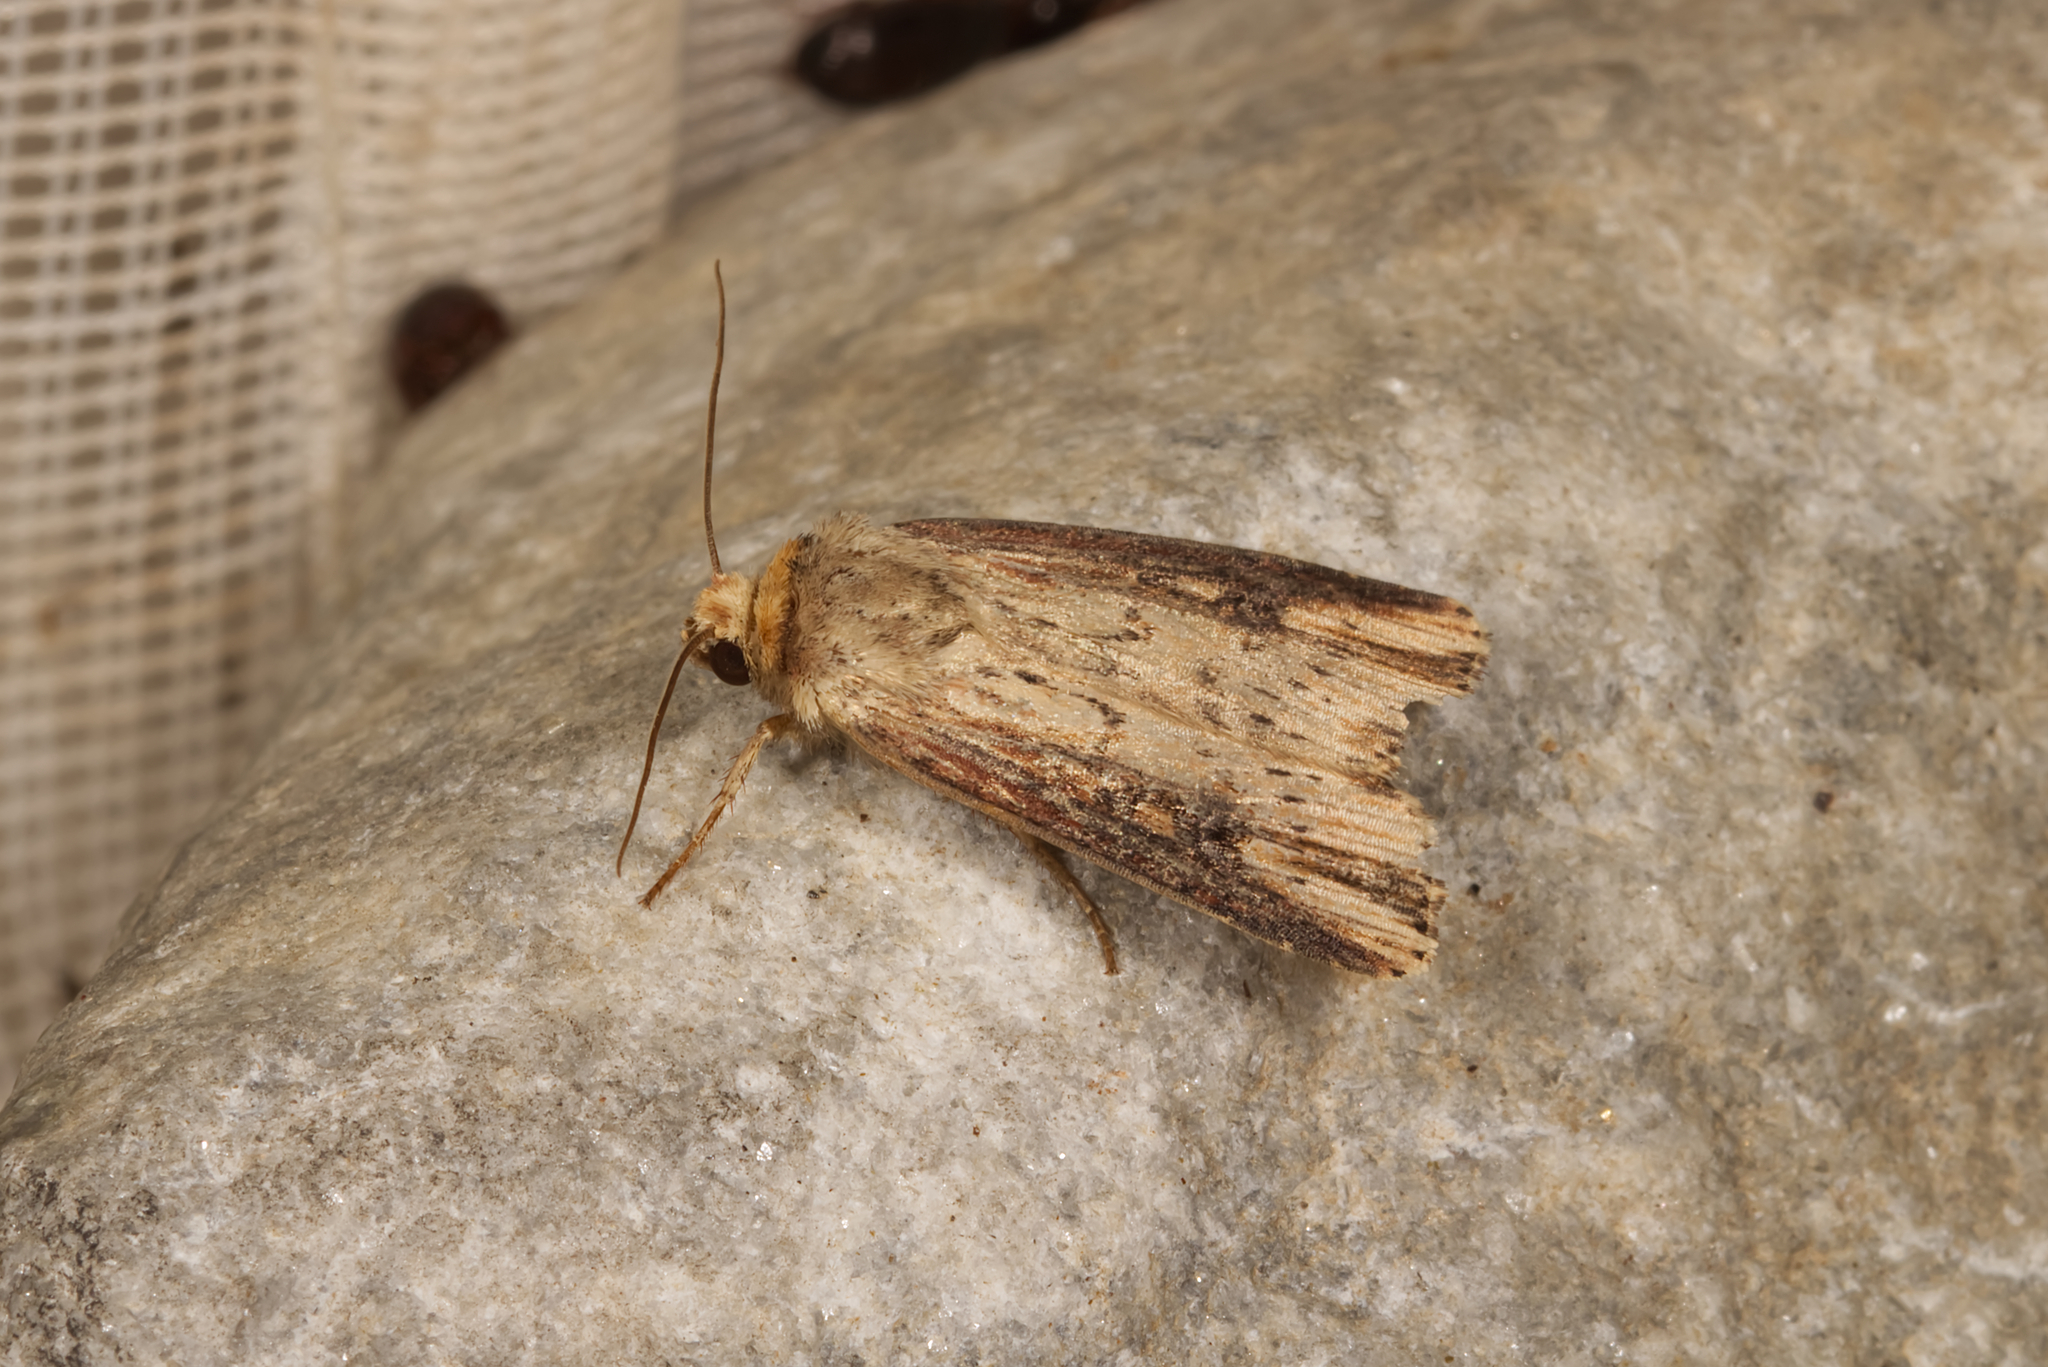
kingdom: Animalia
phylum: Arthropoda
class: Insecta
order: Lepidoptera
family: Noctuidae
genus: Axylia
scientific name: Axylia putris
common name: Flame
